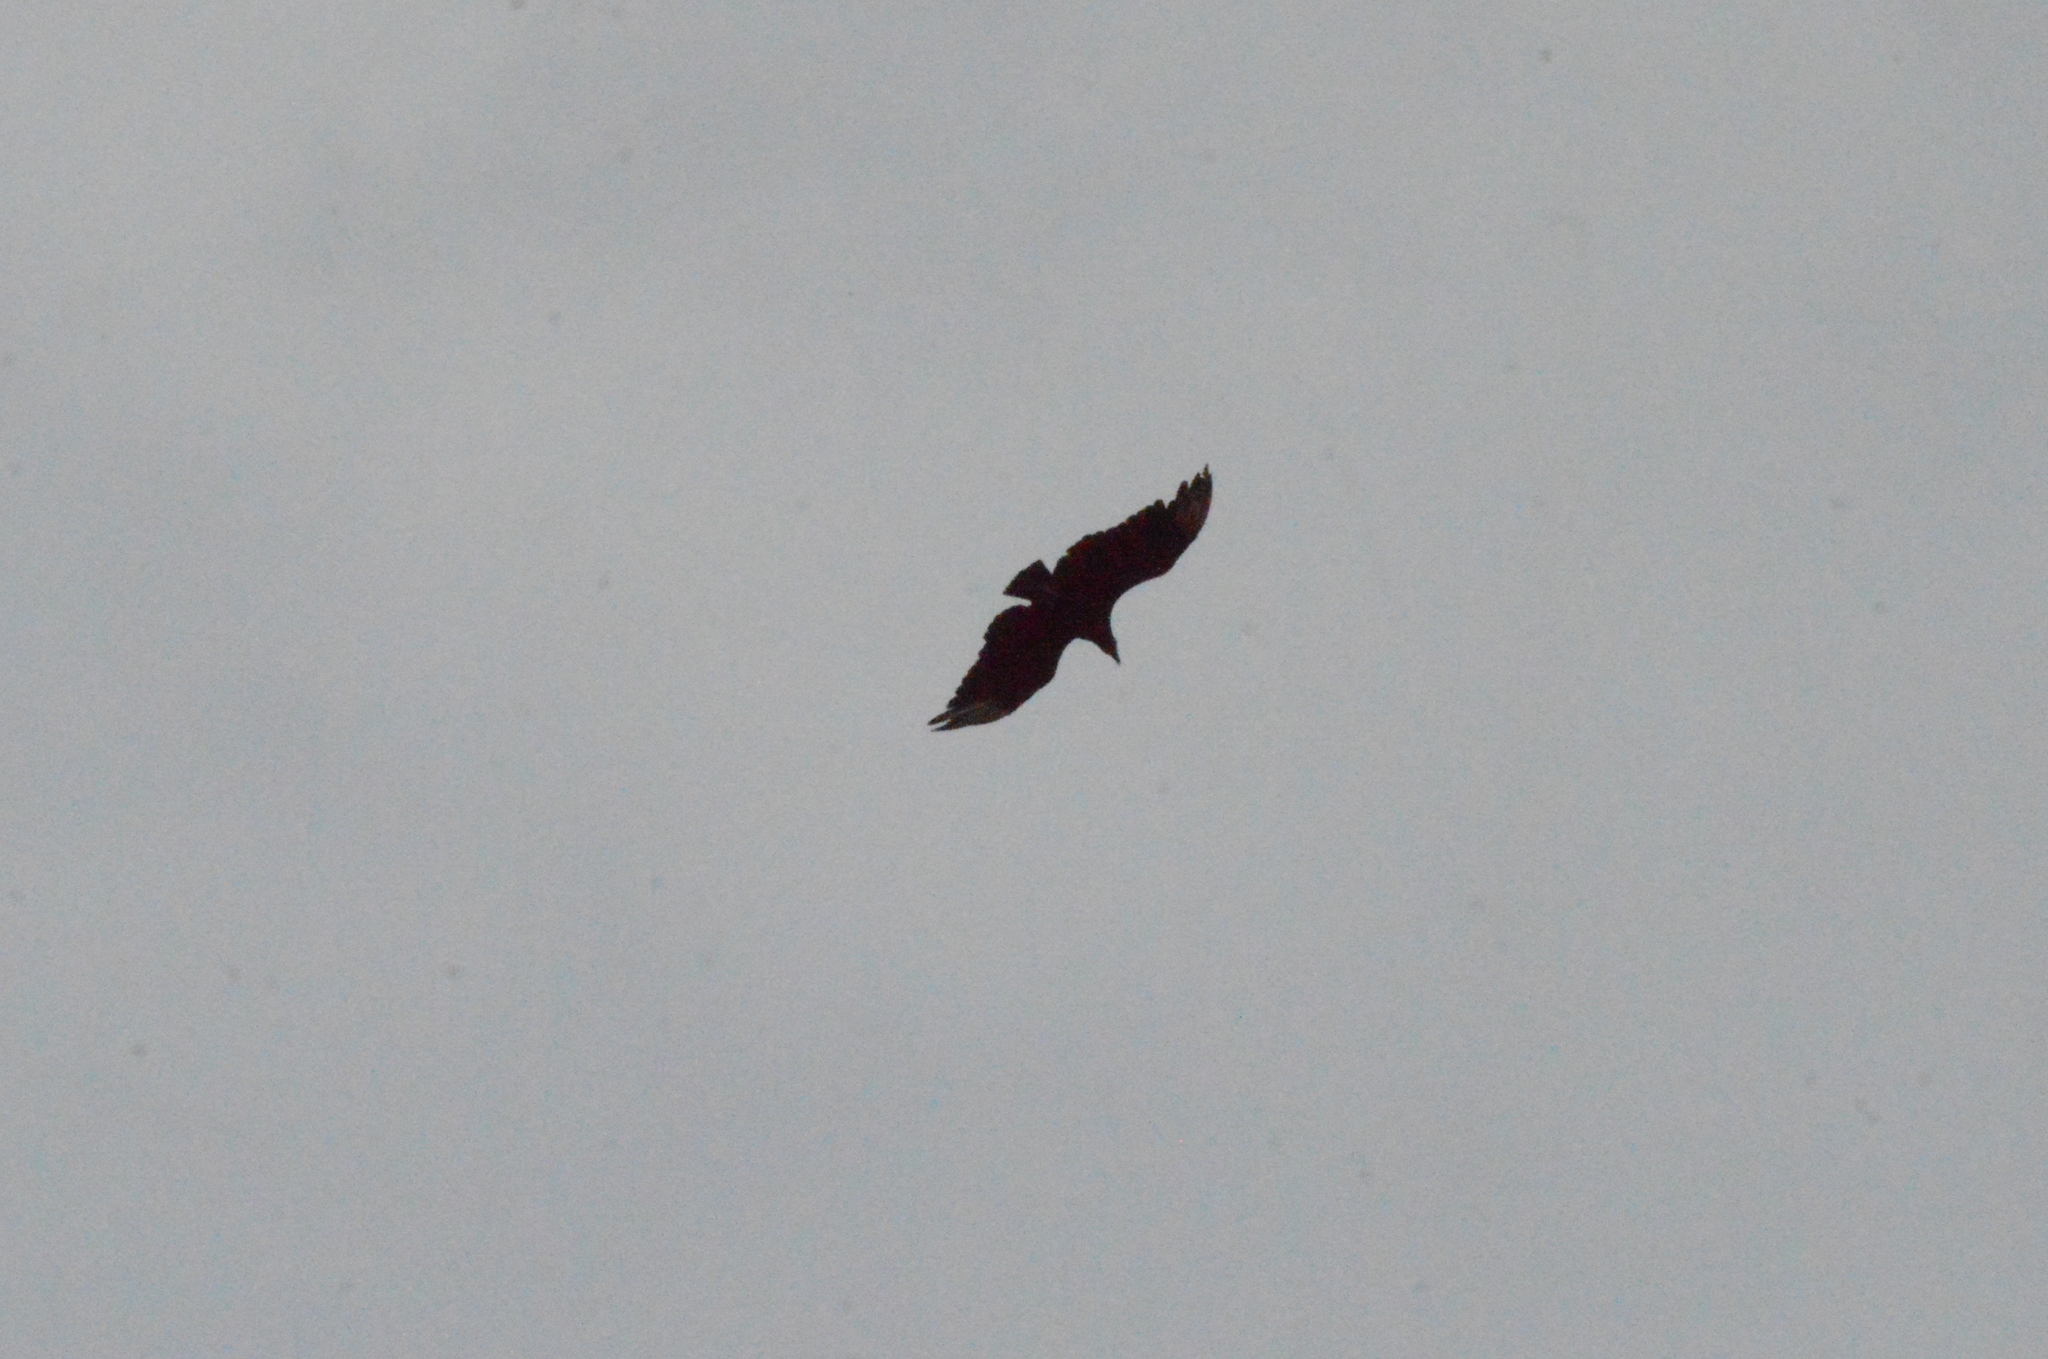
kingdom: Animalia
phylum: Chordata
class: Aves
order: Accipitriformes
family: Cathartidae
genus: Coragyps
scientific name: Coragyps atratus
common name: Black vulture
